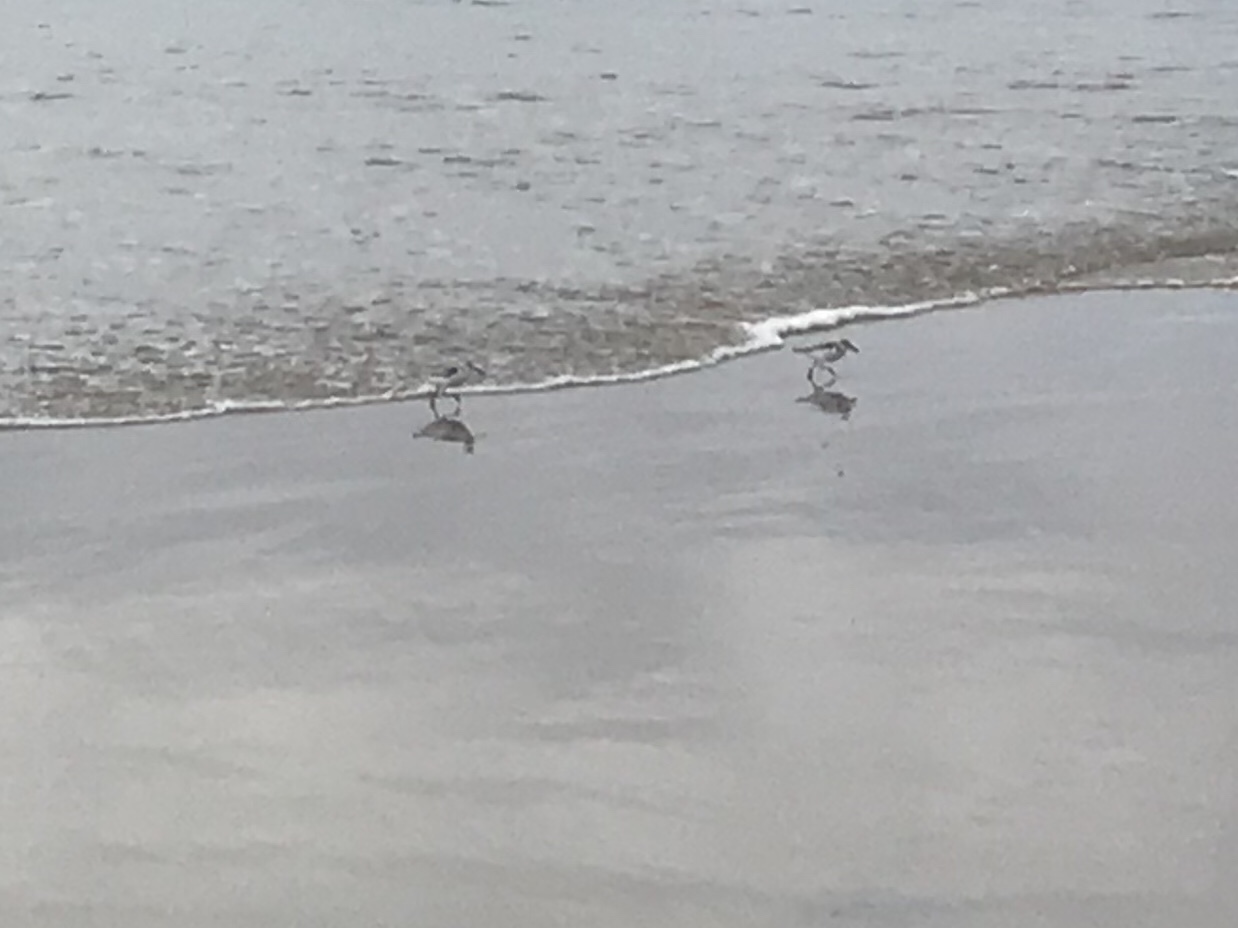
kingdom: Animalia
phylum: Chordata
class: Aves
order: Charadriiformes
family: Scolopacidae
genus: Calidris
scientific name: Calidris alba
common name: Sanderling
